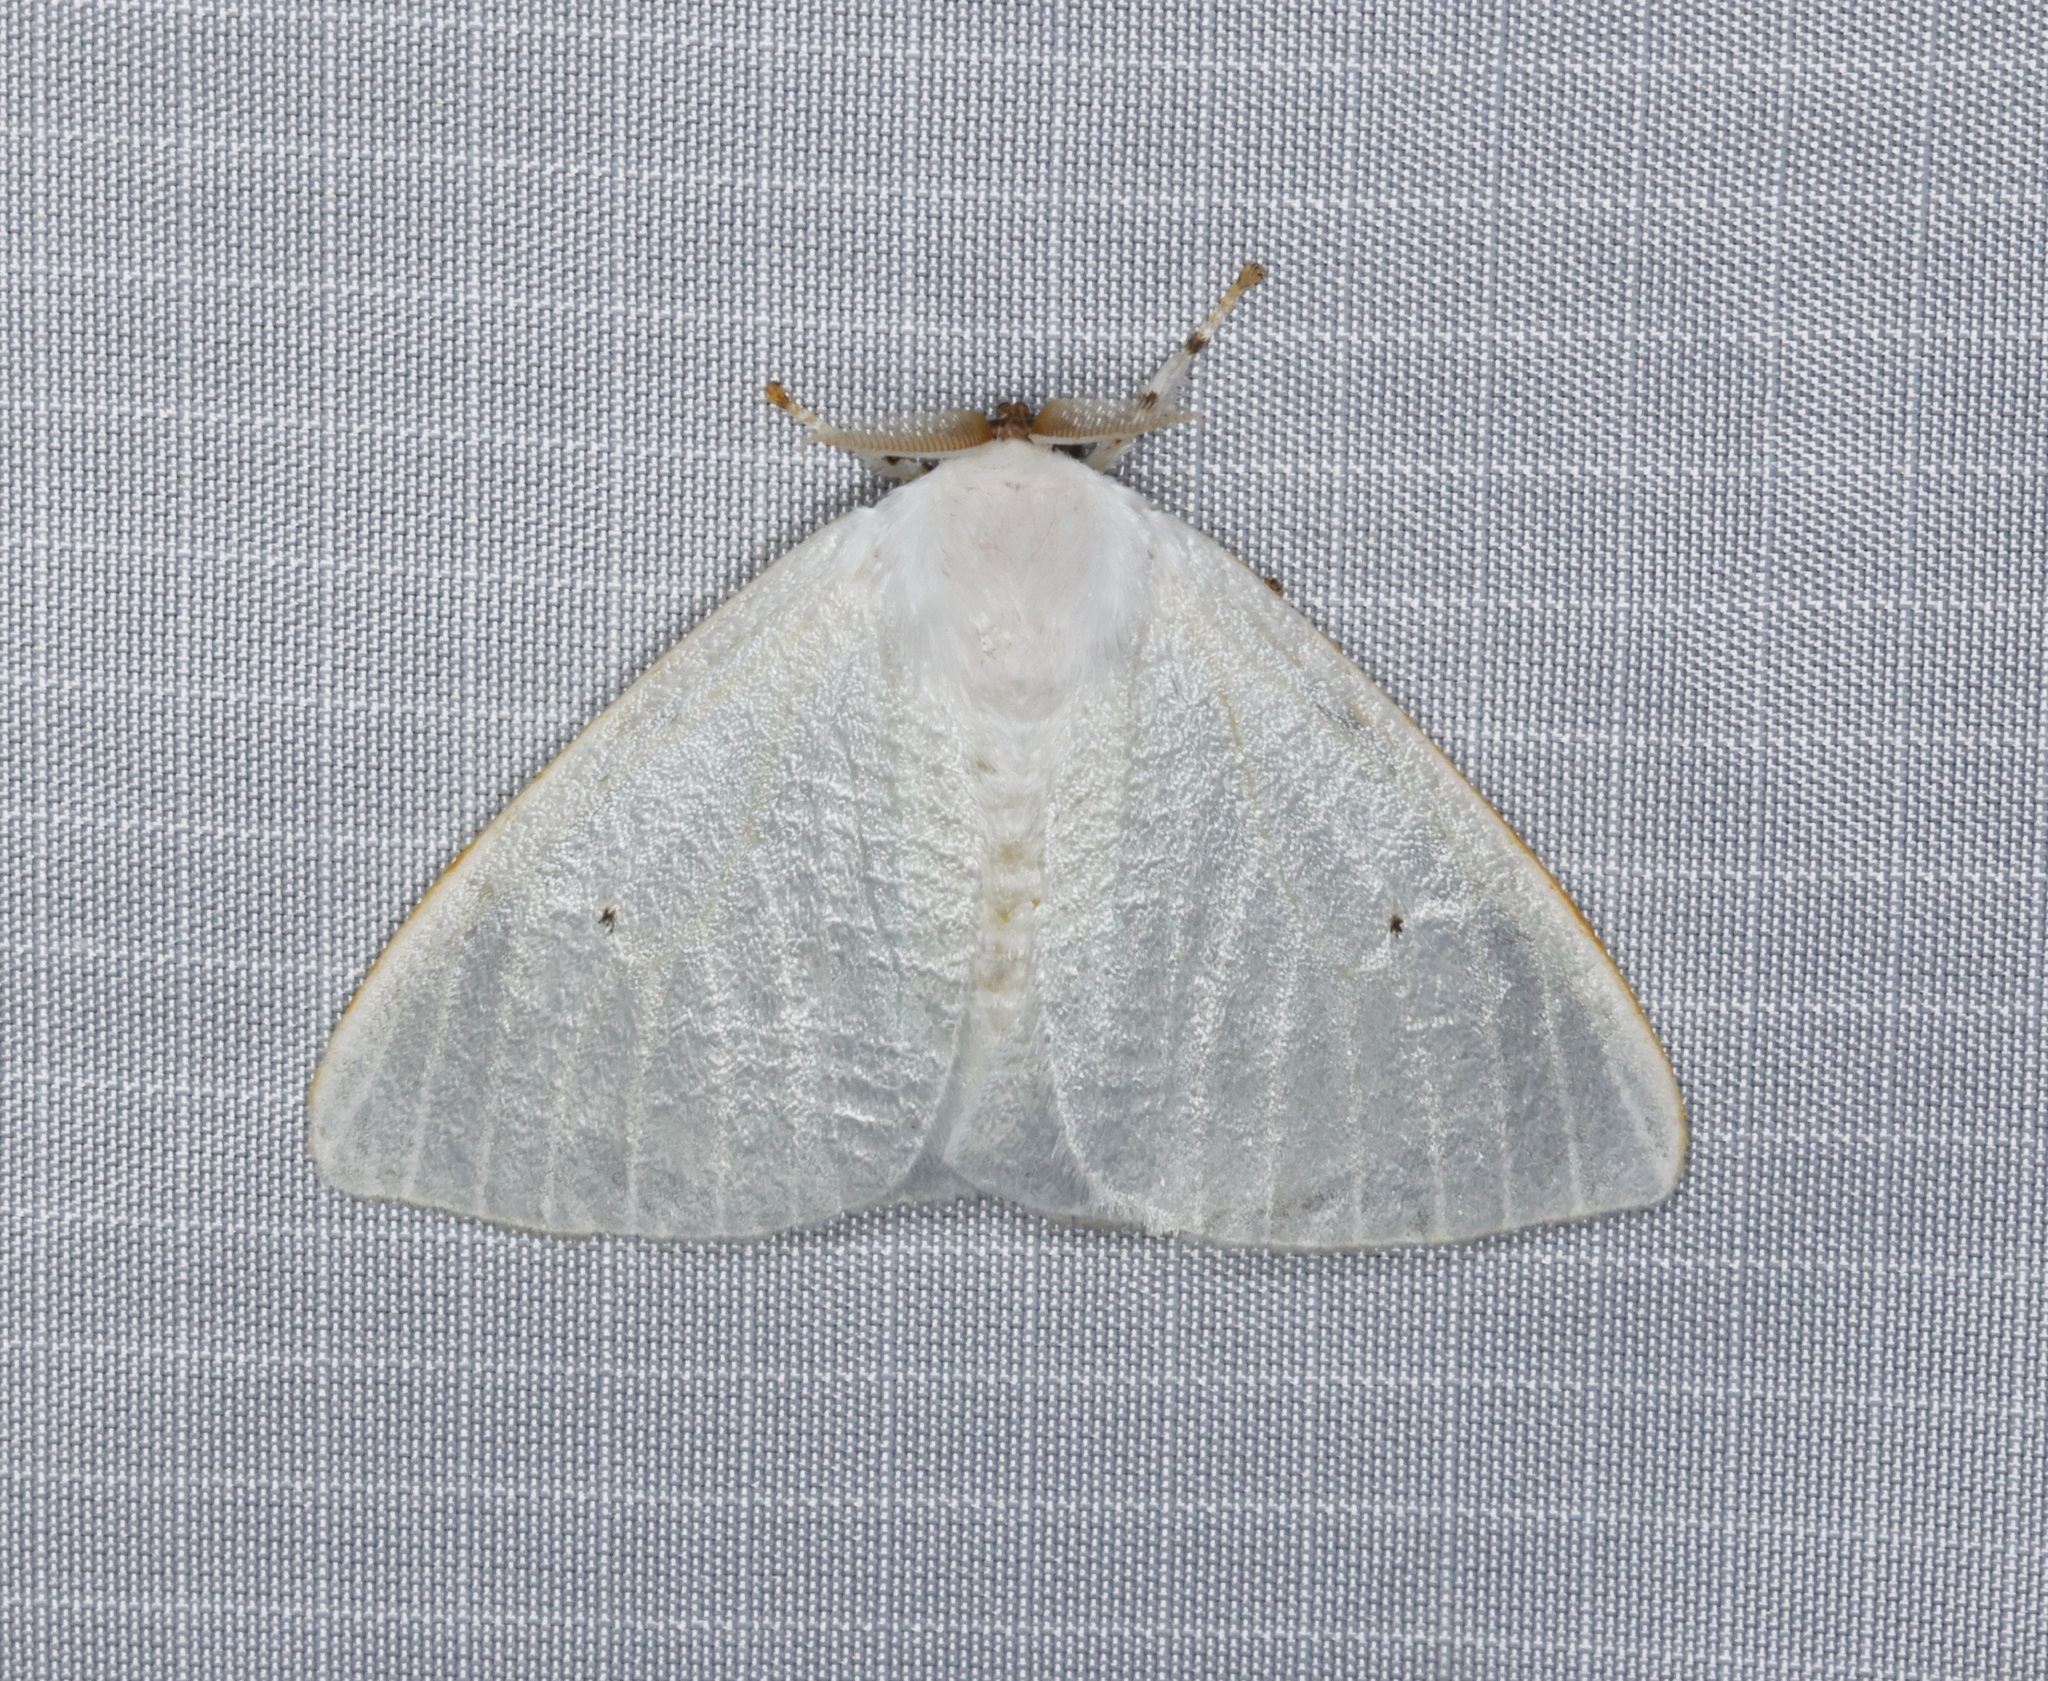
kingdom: Animalia
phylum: Arthropoda
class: Insecta
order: Lepidoptera
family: Erebidae
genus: Arctornis
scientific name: Arctornis
